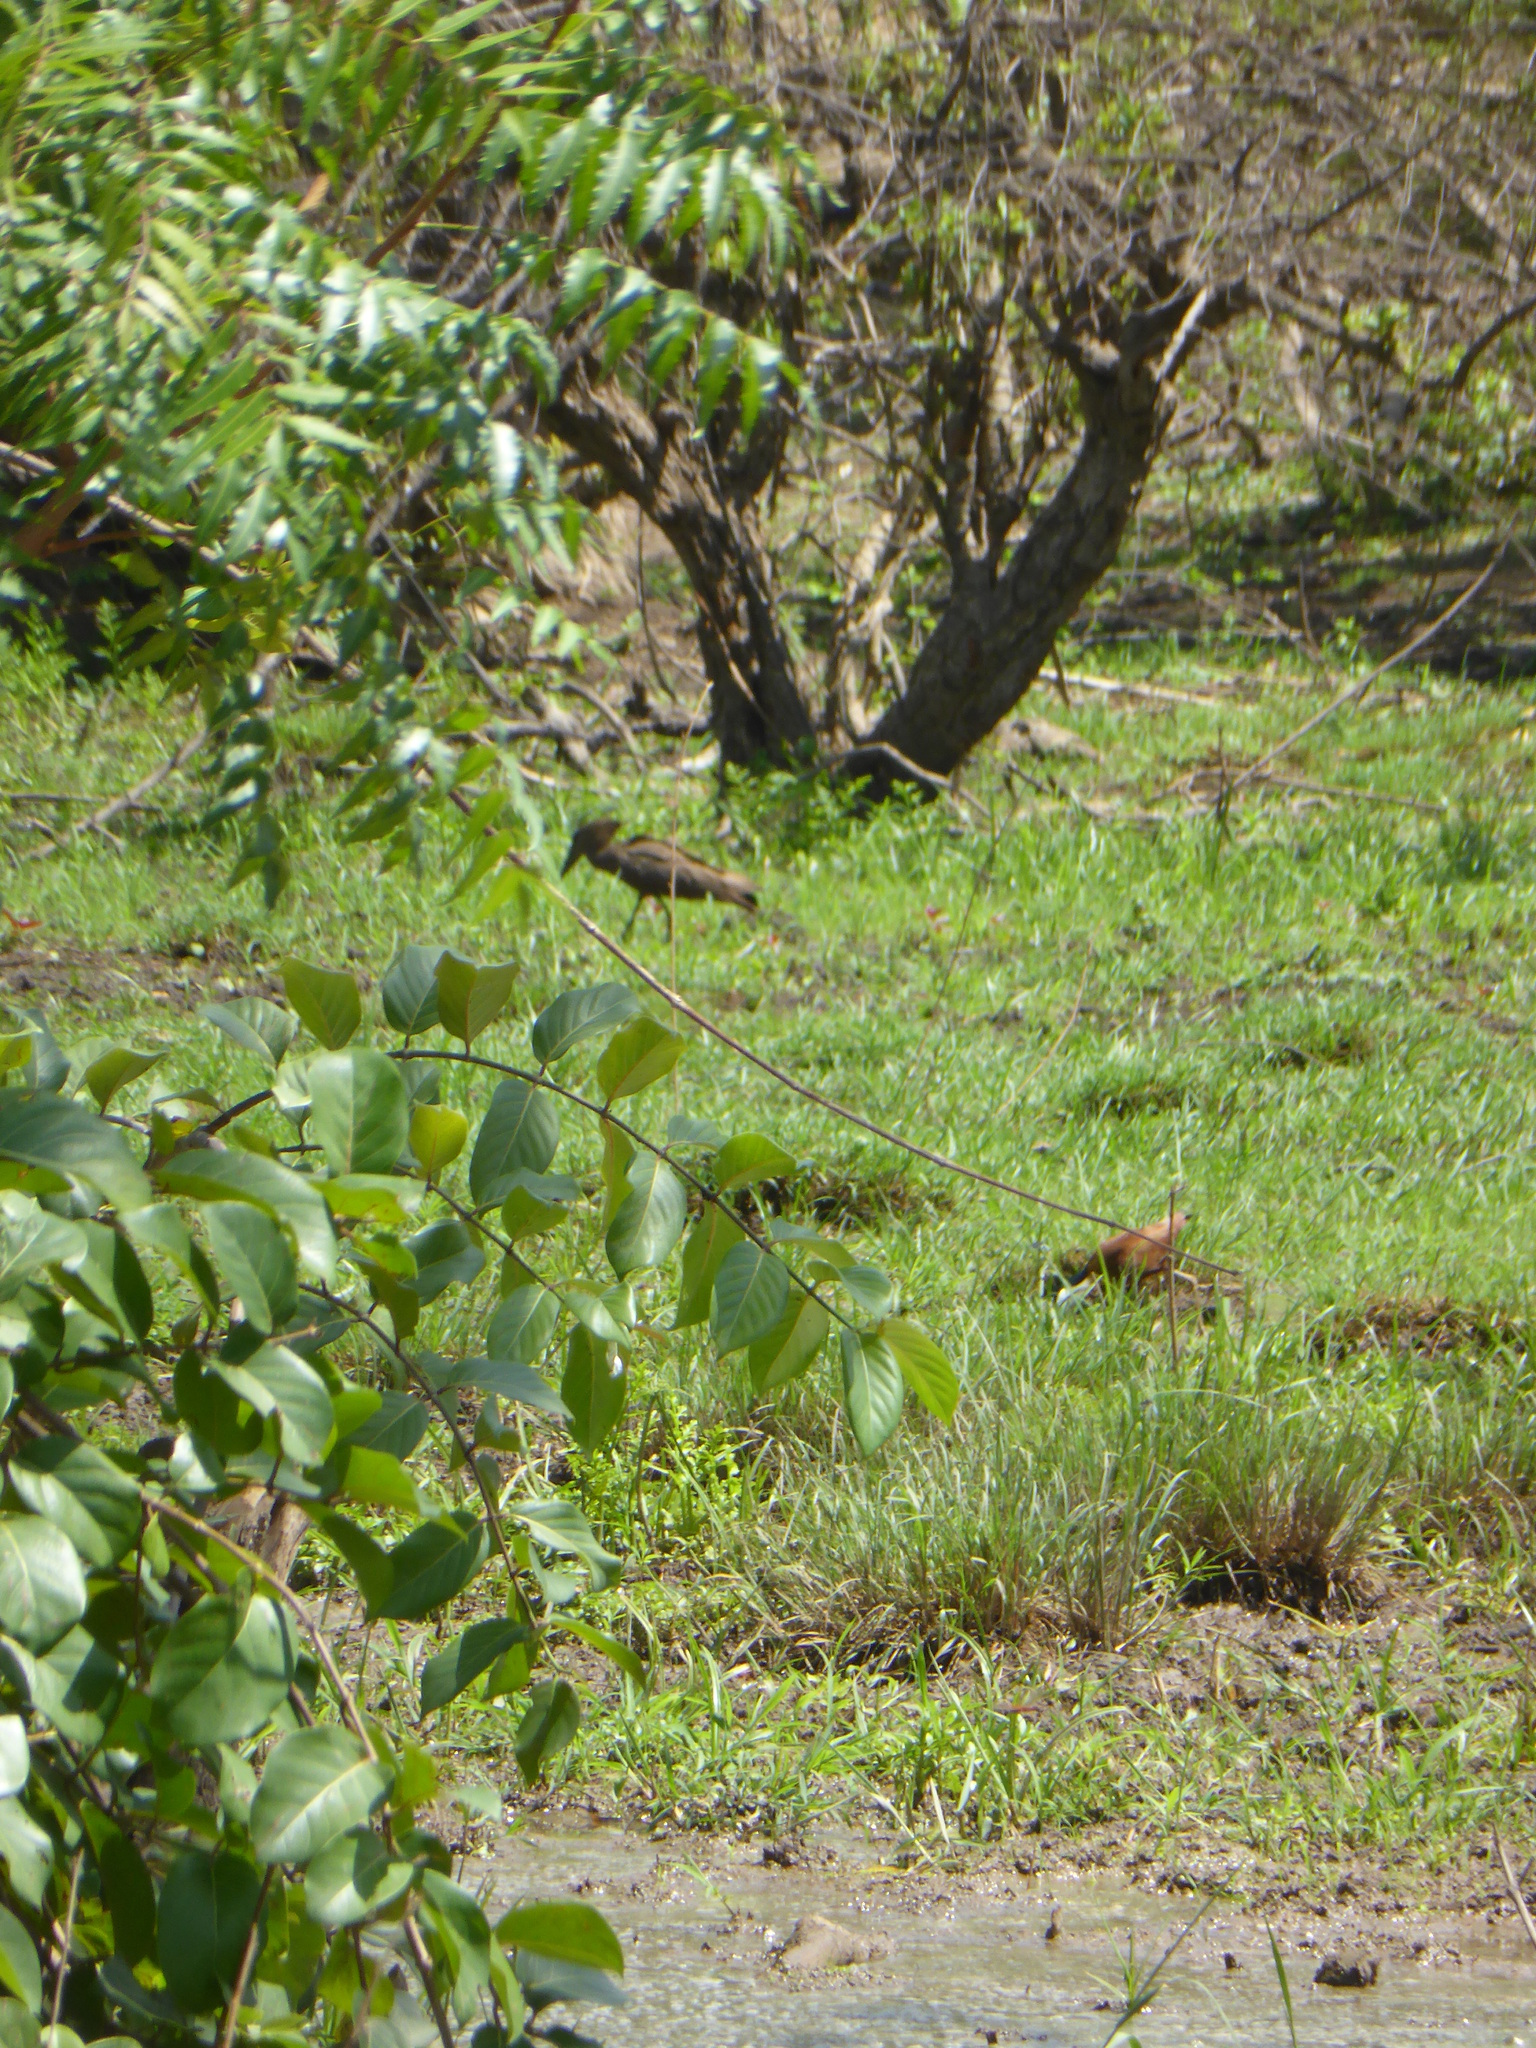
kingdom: Animalia
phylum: Chordata
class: Aves
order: Pelecaniformes
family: Scopidae
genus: Scopus
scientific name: Scopus umbretta
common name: Hamerkop
